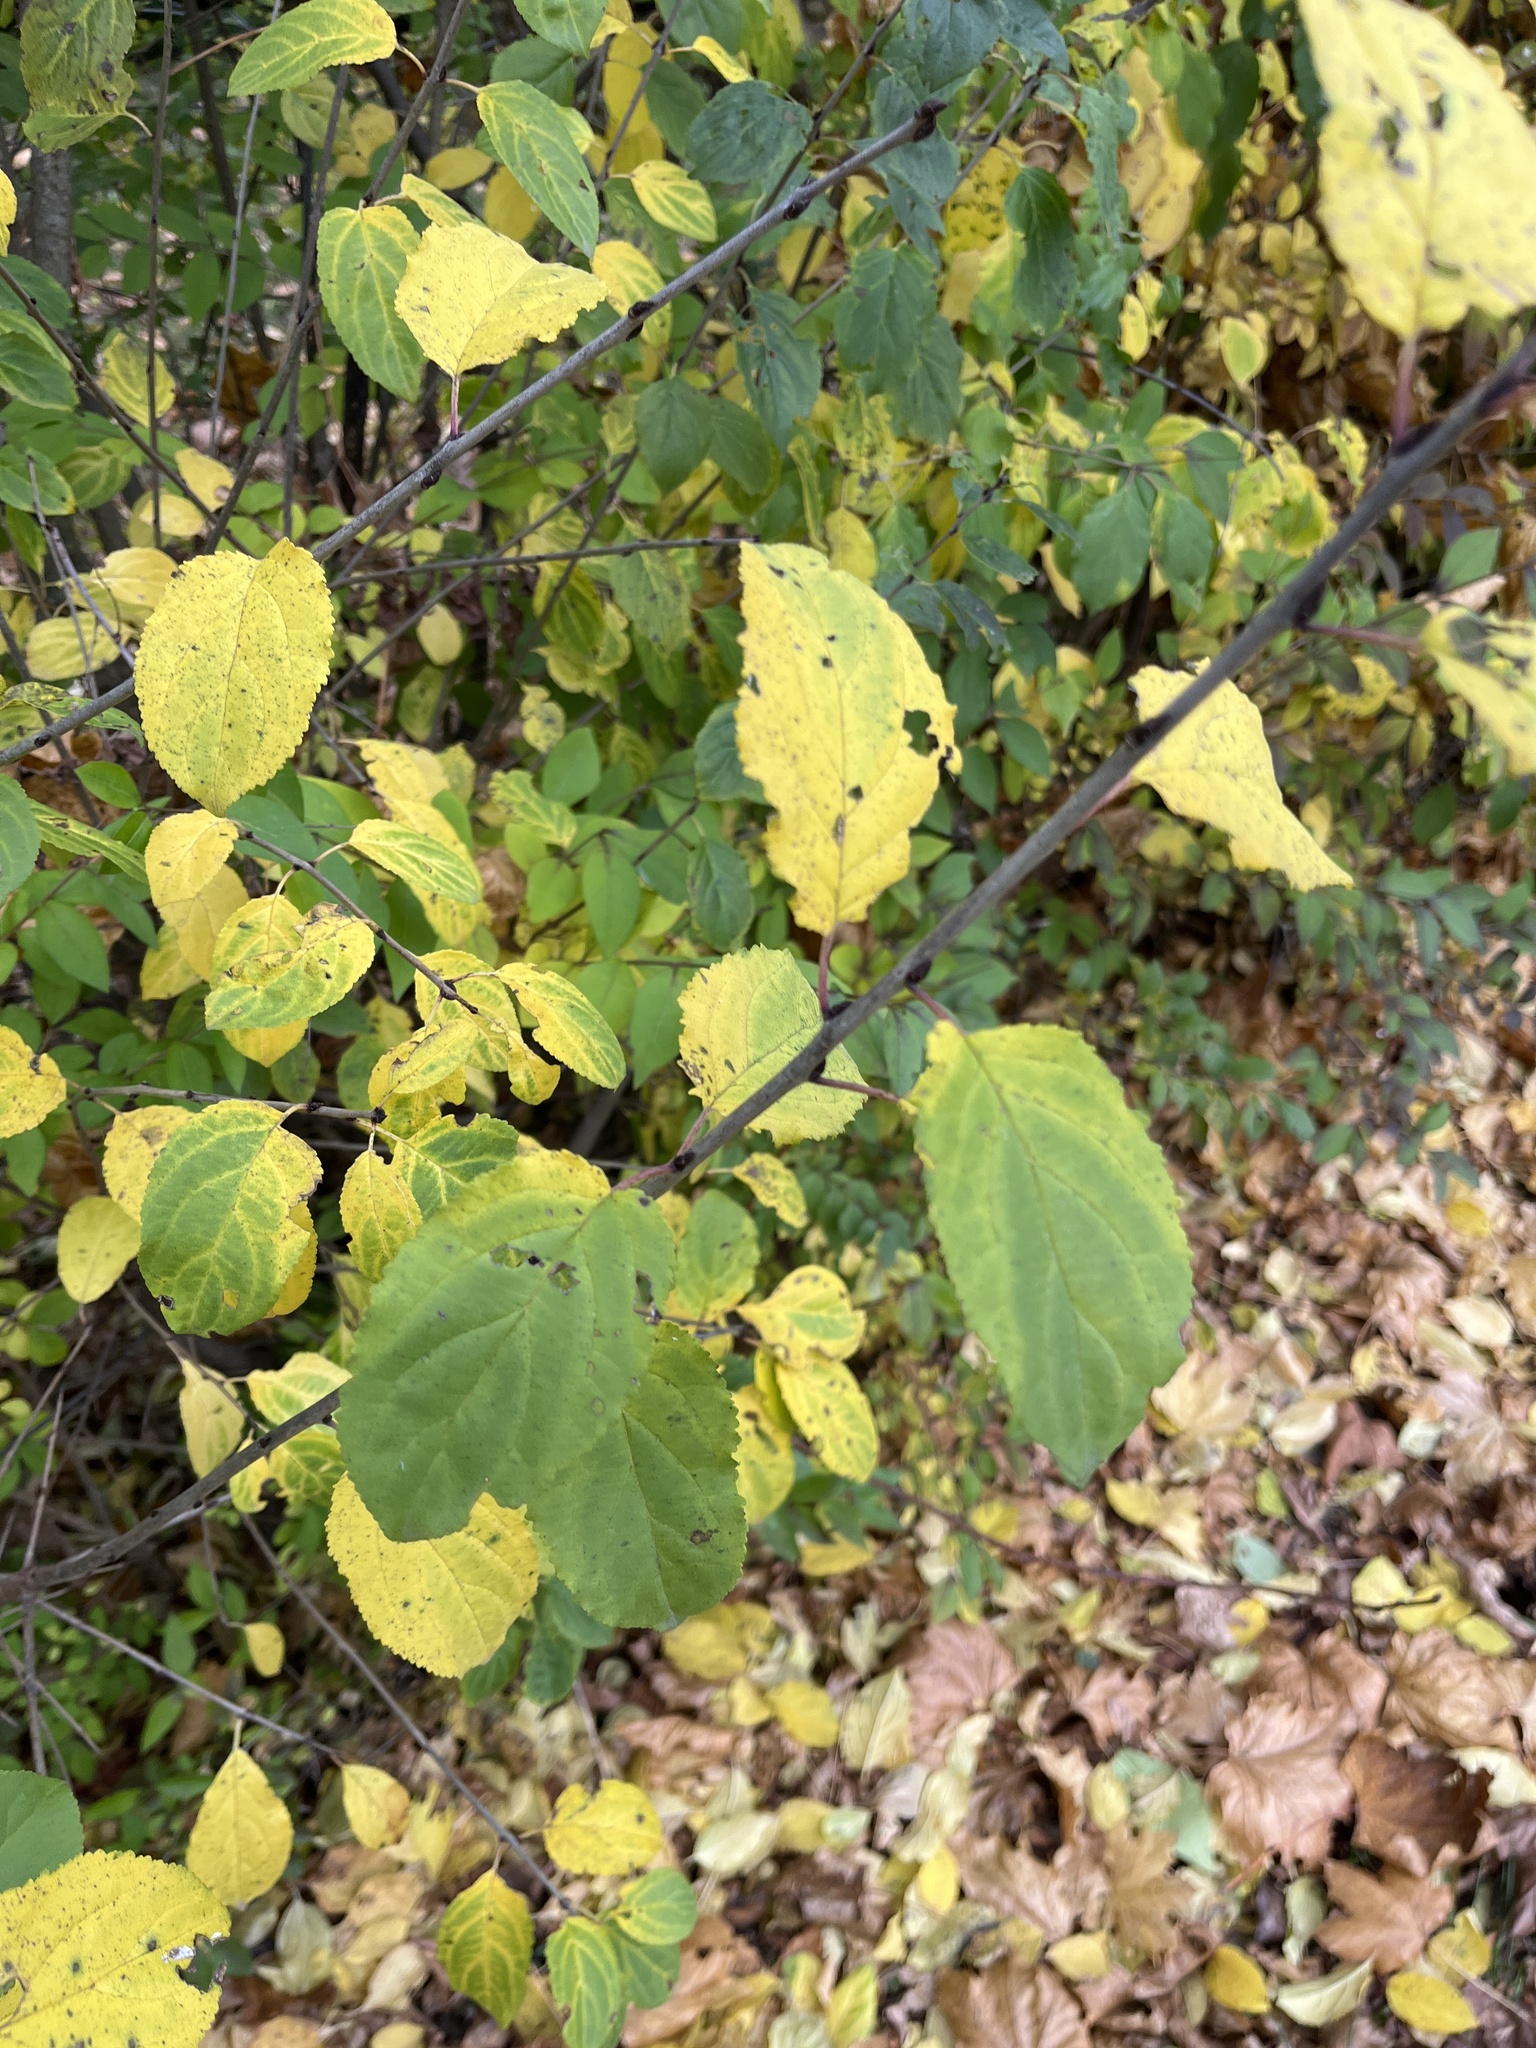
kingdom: Plantae
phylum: Tracheophyta
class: Magnoliopsida
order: Rosales
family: Rhamnaceae
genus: Rhamnus
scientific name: Rhamnus cathartica
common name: Common buckthorn
